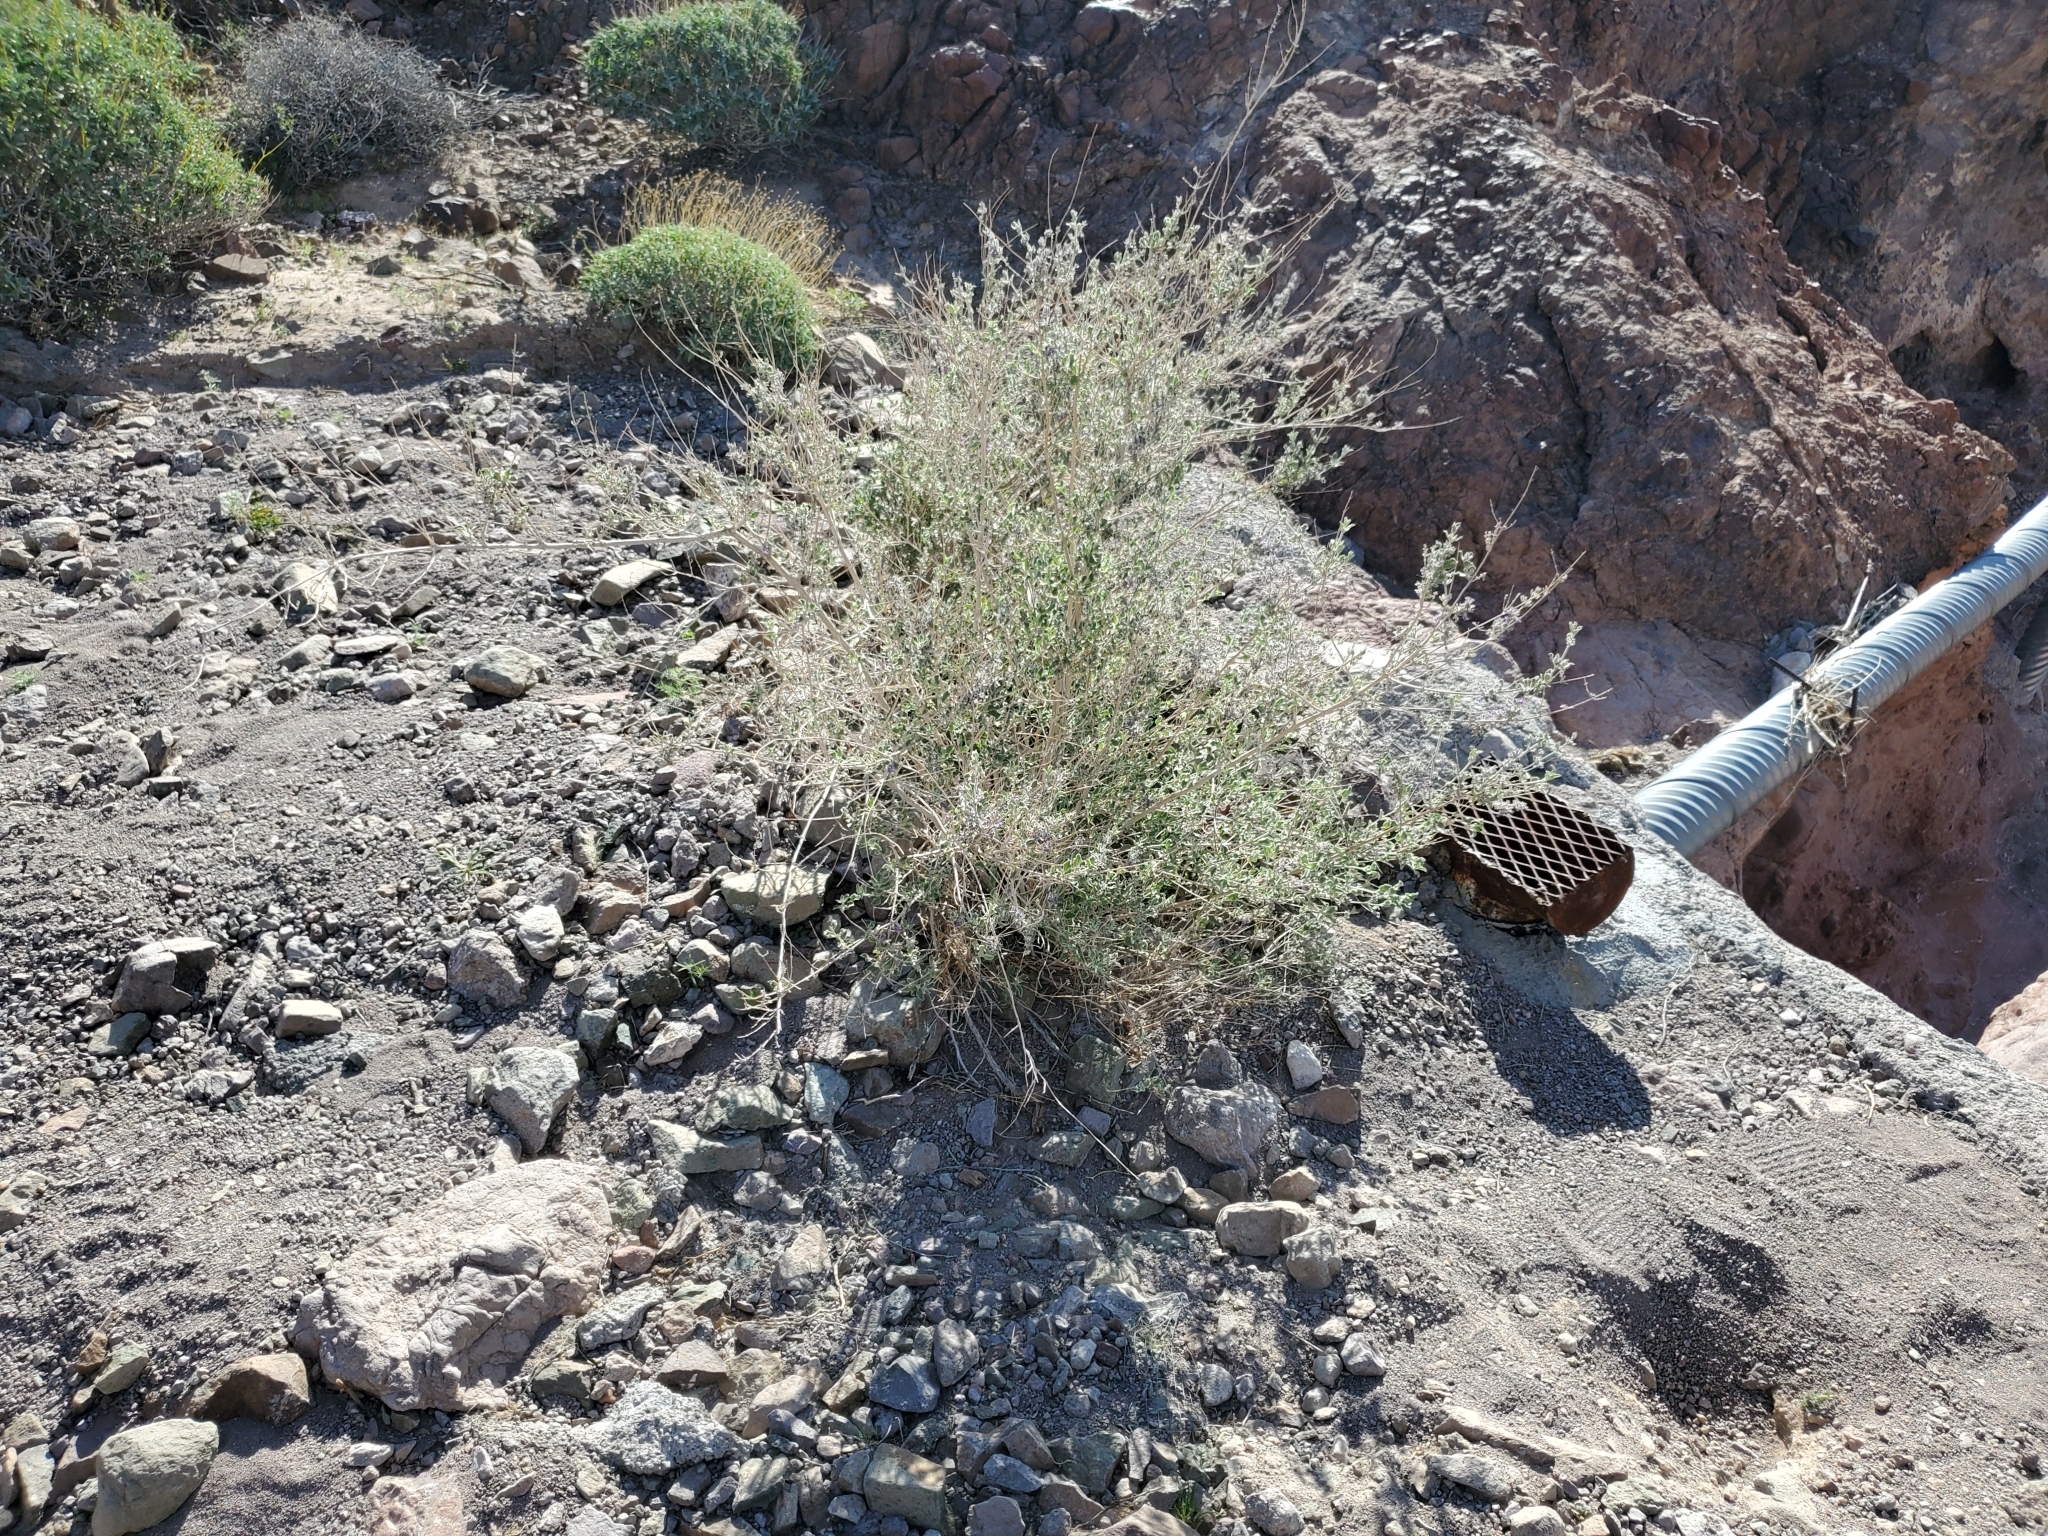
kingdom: Plantae
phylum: Tracheophyta
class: Magnoliopsida
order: Lamiales
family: Lamiaceae
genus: Condea
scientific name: Condea emoryi
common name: Chia
